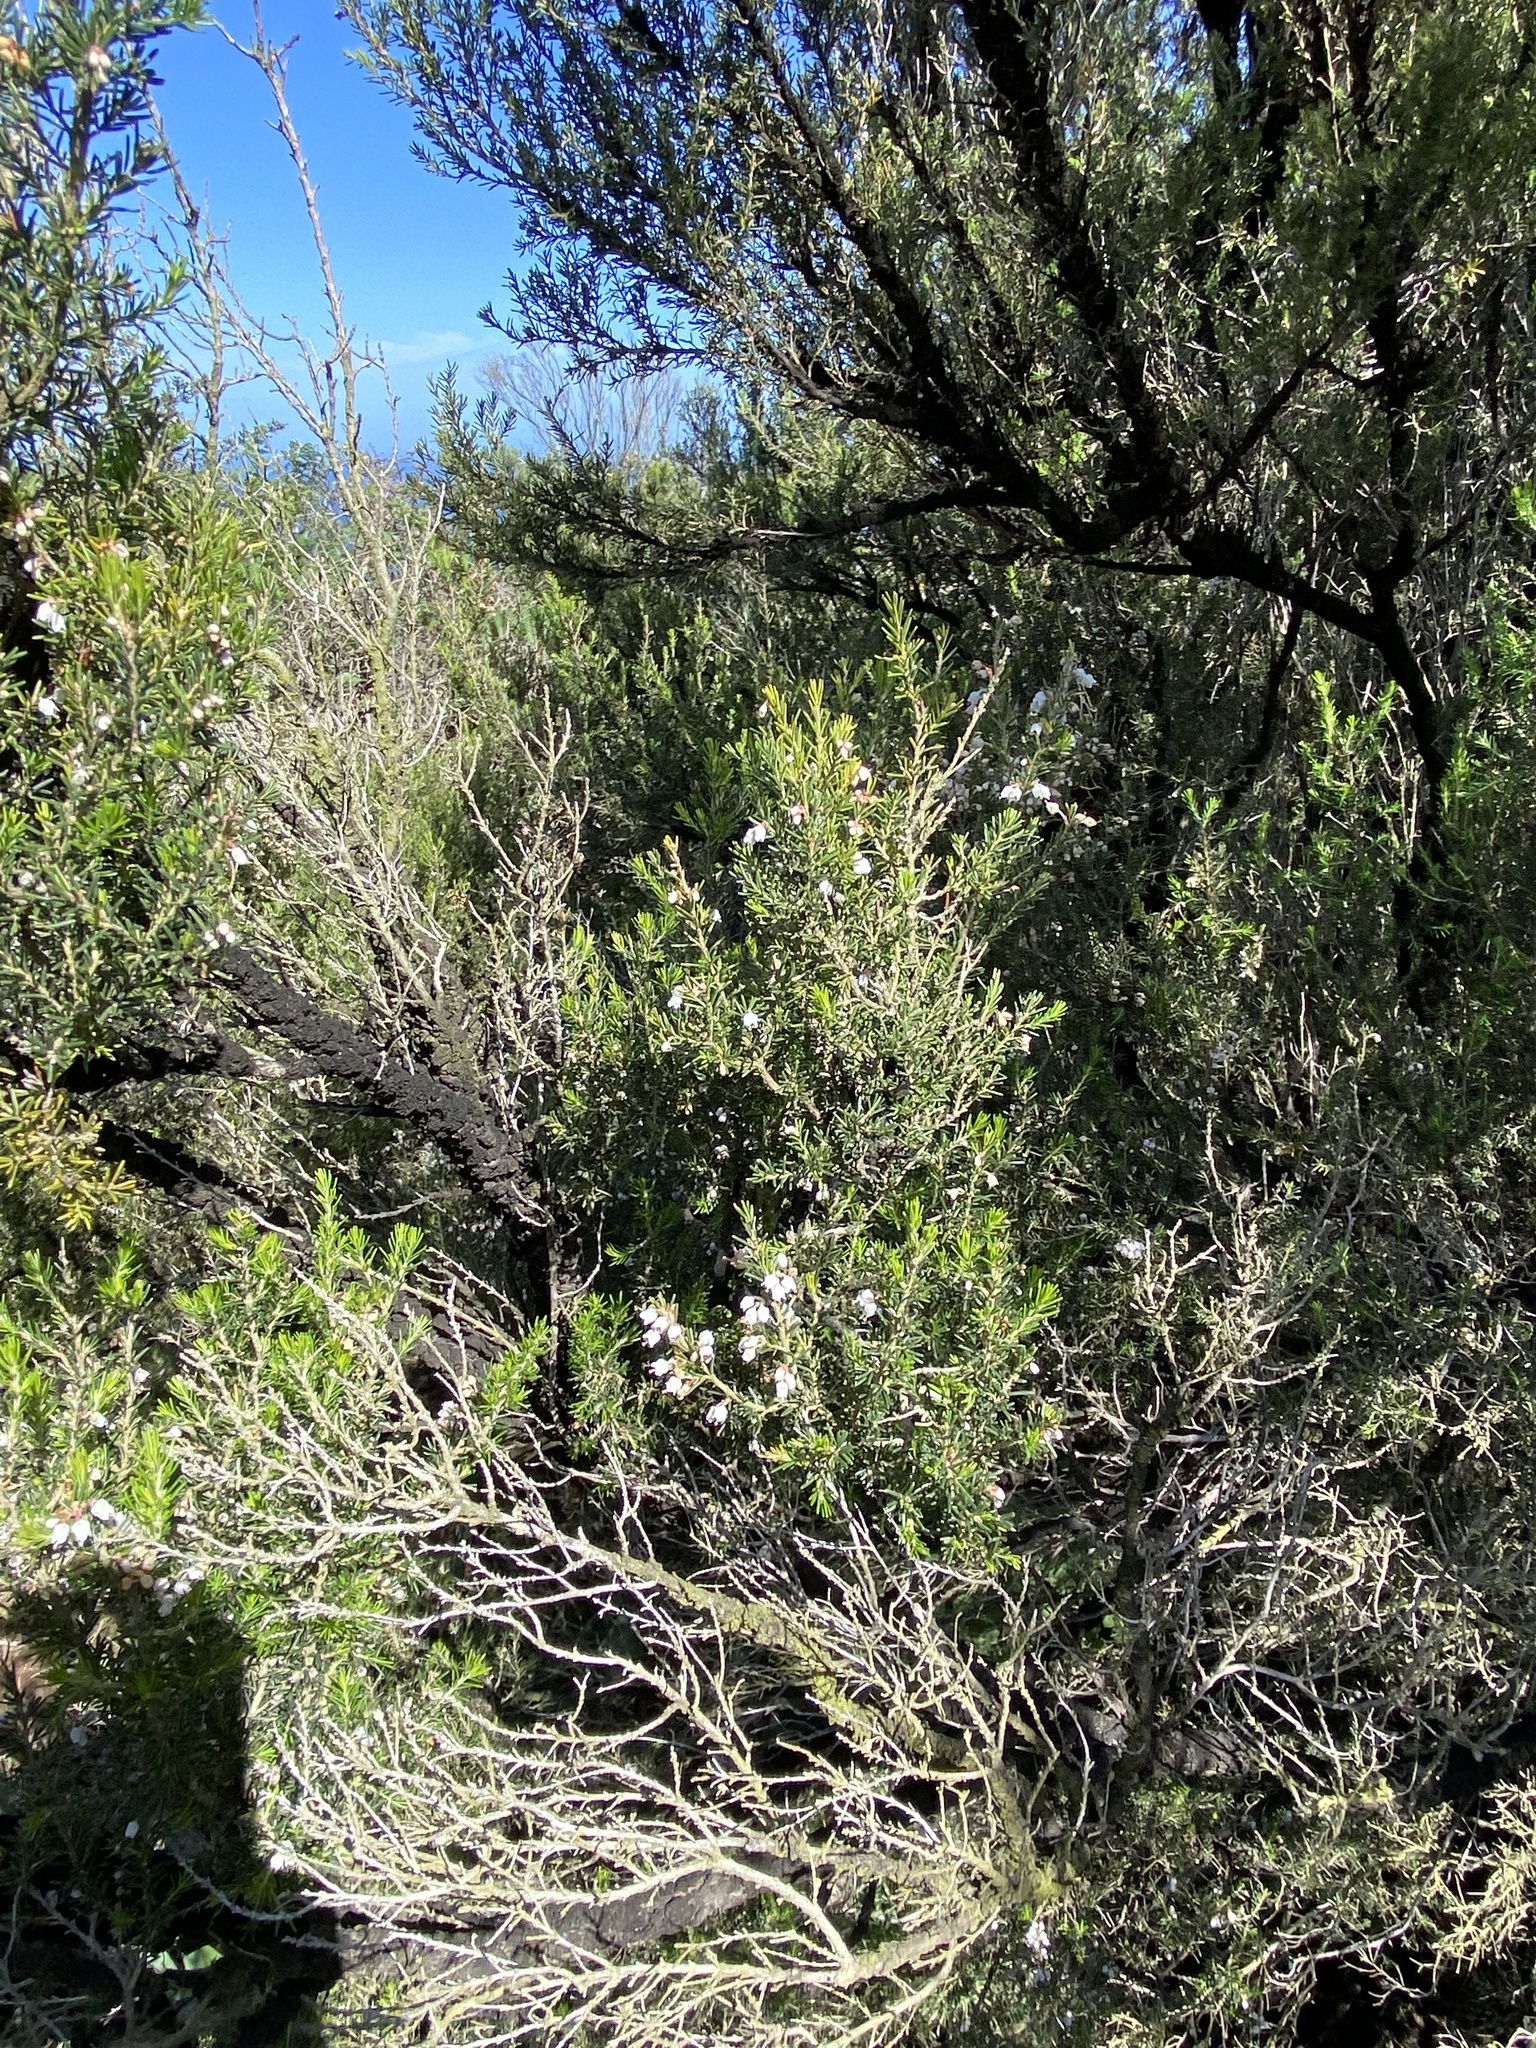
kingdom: Plantae
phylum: Tracheophyta
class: Magnoliopsida
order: Ericales
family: Ericaceae
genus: Erica
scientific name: Erica arborea
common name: Tree heath
